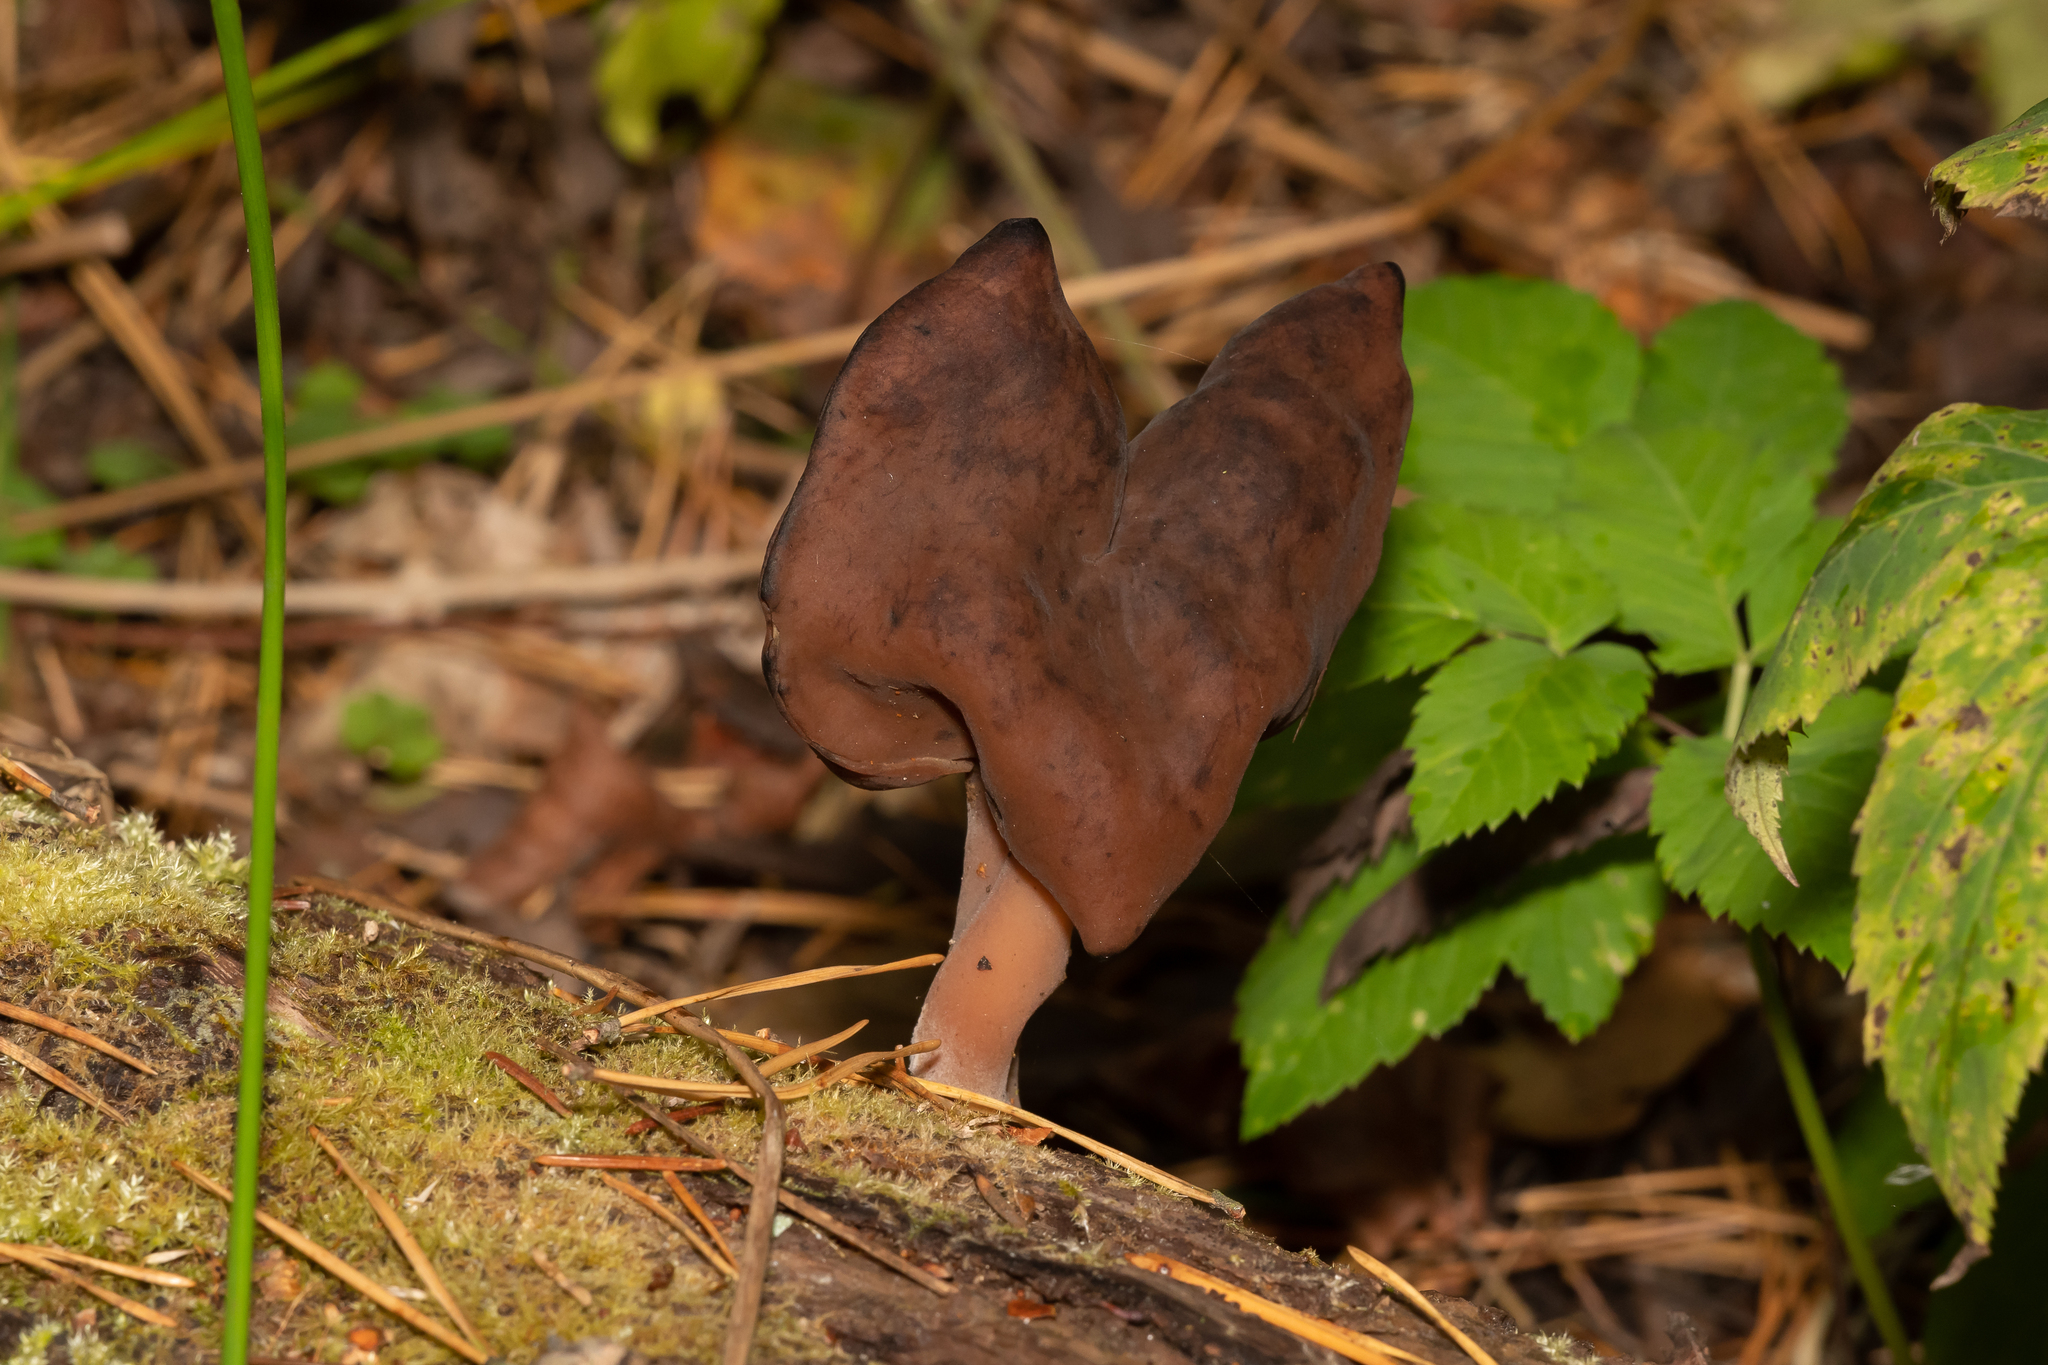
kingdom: Fungi
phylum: Ascomycota
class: Pezizomycetes
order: Pezizales
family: Discinaceae
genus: Gyromitra
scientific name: Gyromitra infula
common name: Pouched false morel
